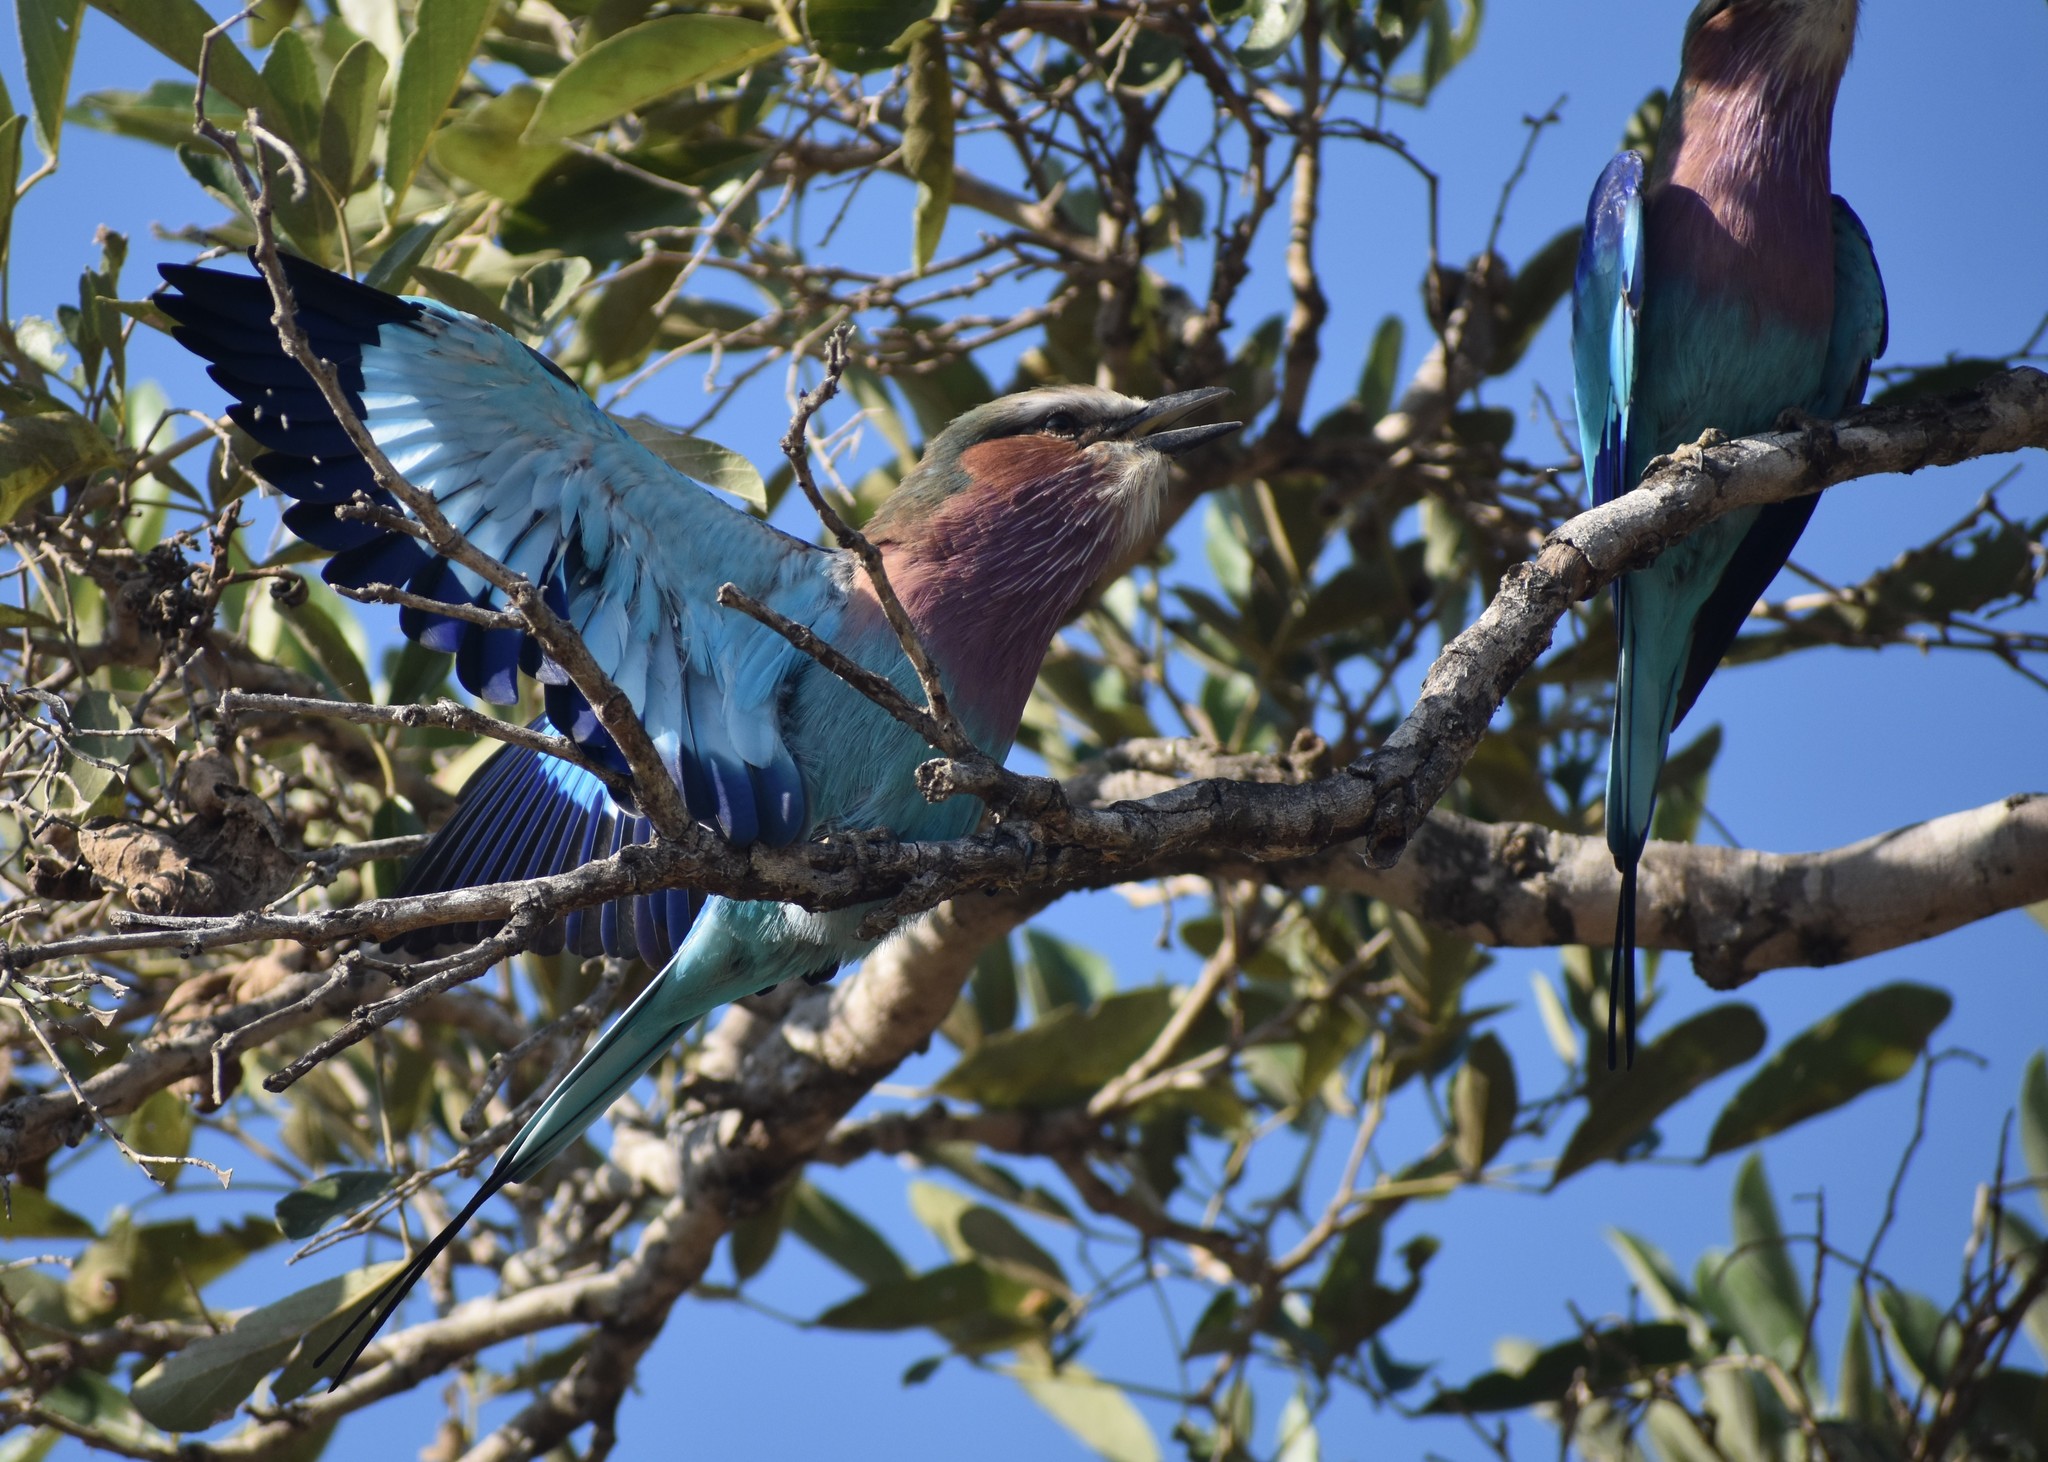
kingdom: Animalia
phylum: Chordata
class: Aves
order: Coraciiformes
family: Coraciidae
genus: Coracias
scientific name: Coracias caudatus
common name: Lilac-breasted roller
